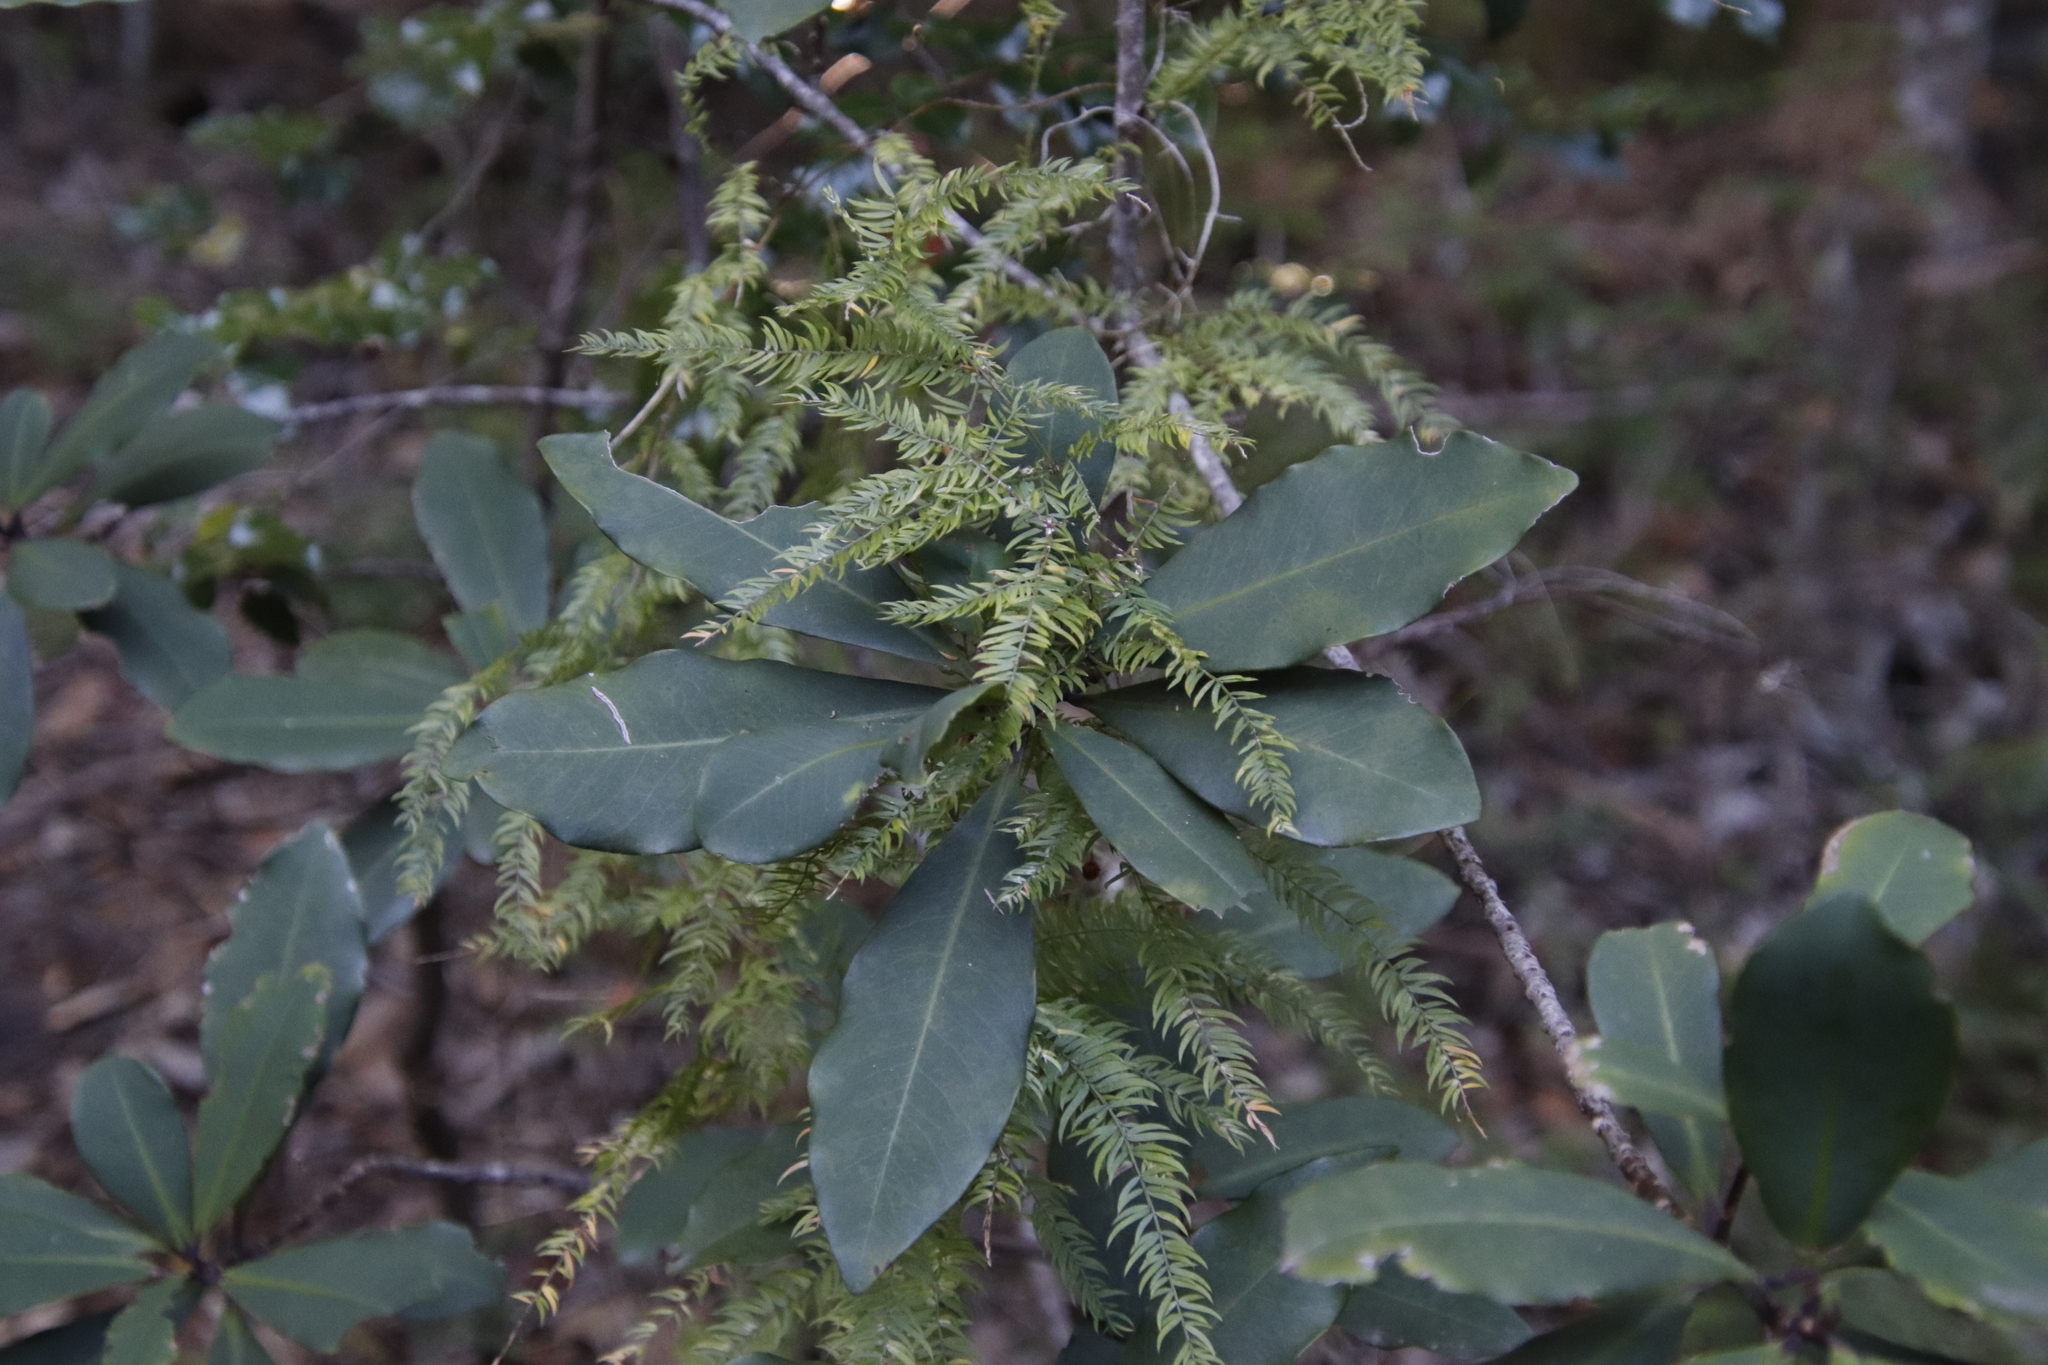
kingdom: Plantae
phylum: Tracheophyta
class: Magnoliopsida
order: Ericales
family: Primulaceae
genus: Myrsine
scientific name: Myrsine melanophloeos
